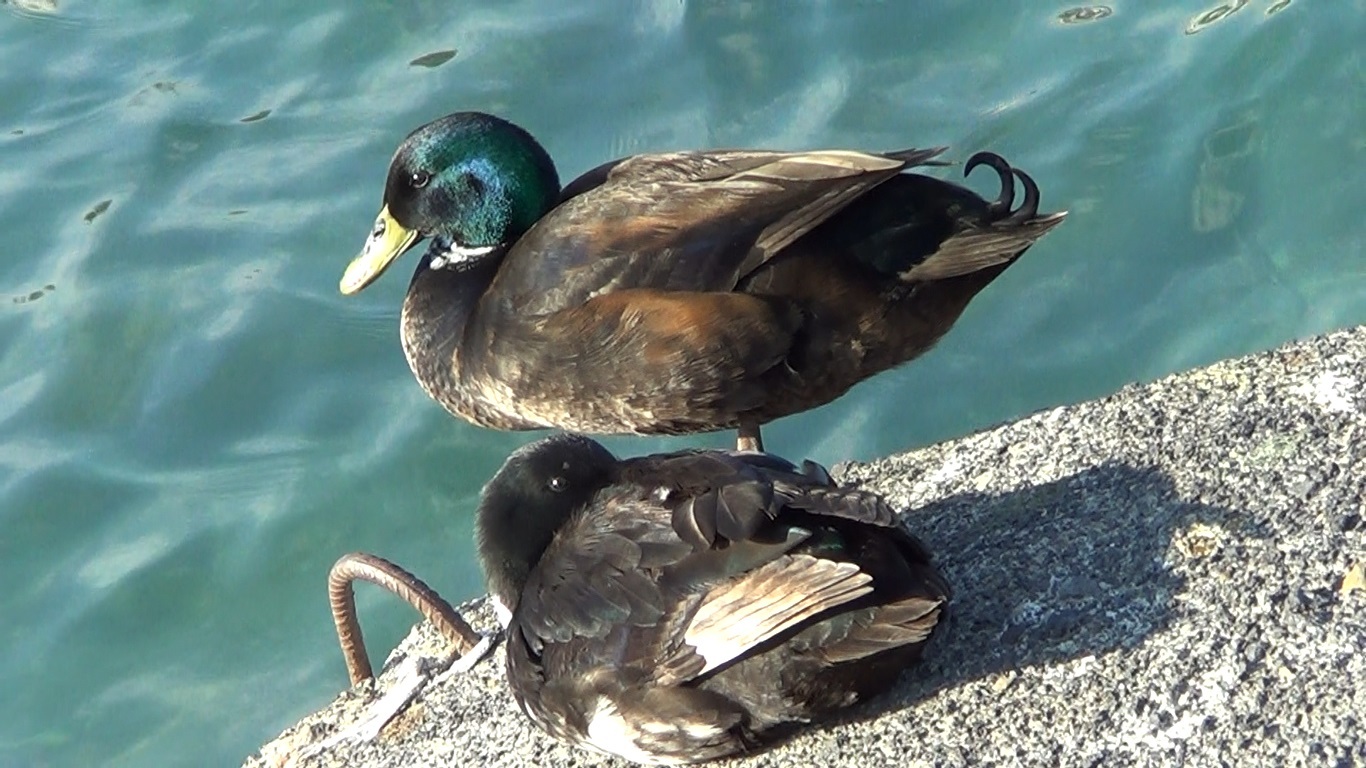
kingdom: Animalia
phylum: Chordata
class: Aves
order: Anseriformes
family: Anatidae
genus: Anas
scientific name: Anas platyrhynchos
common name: Mallard
